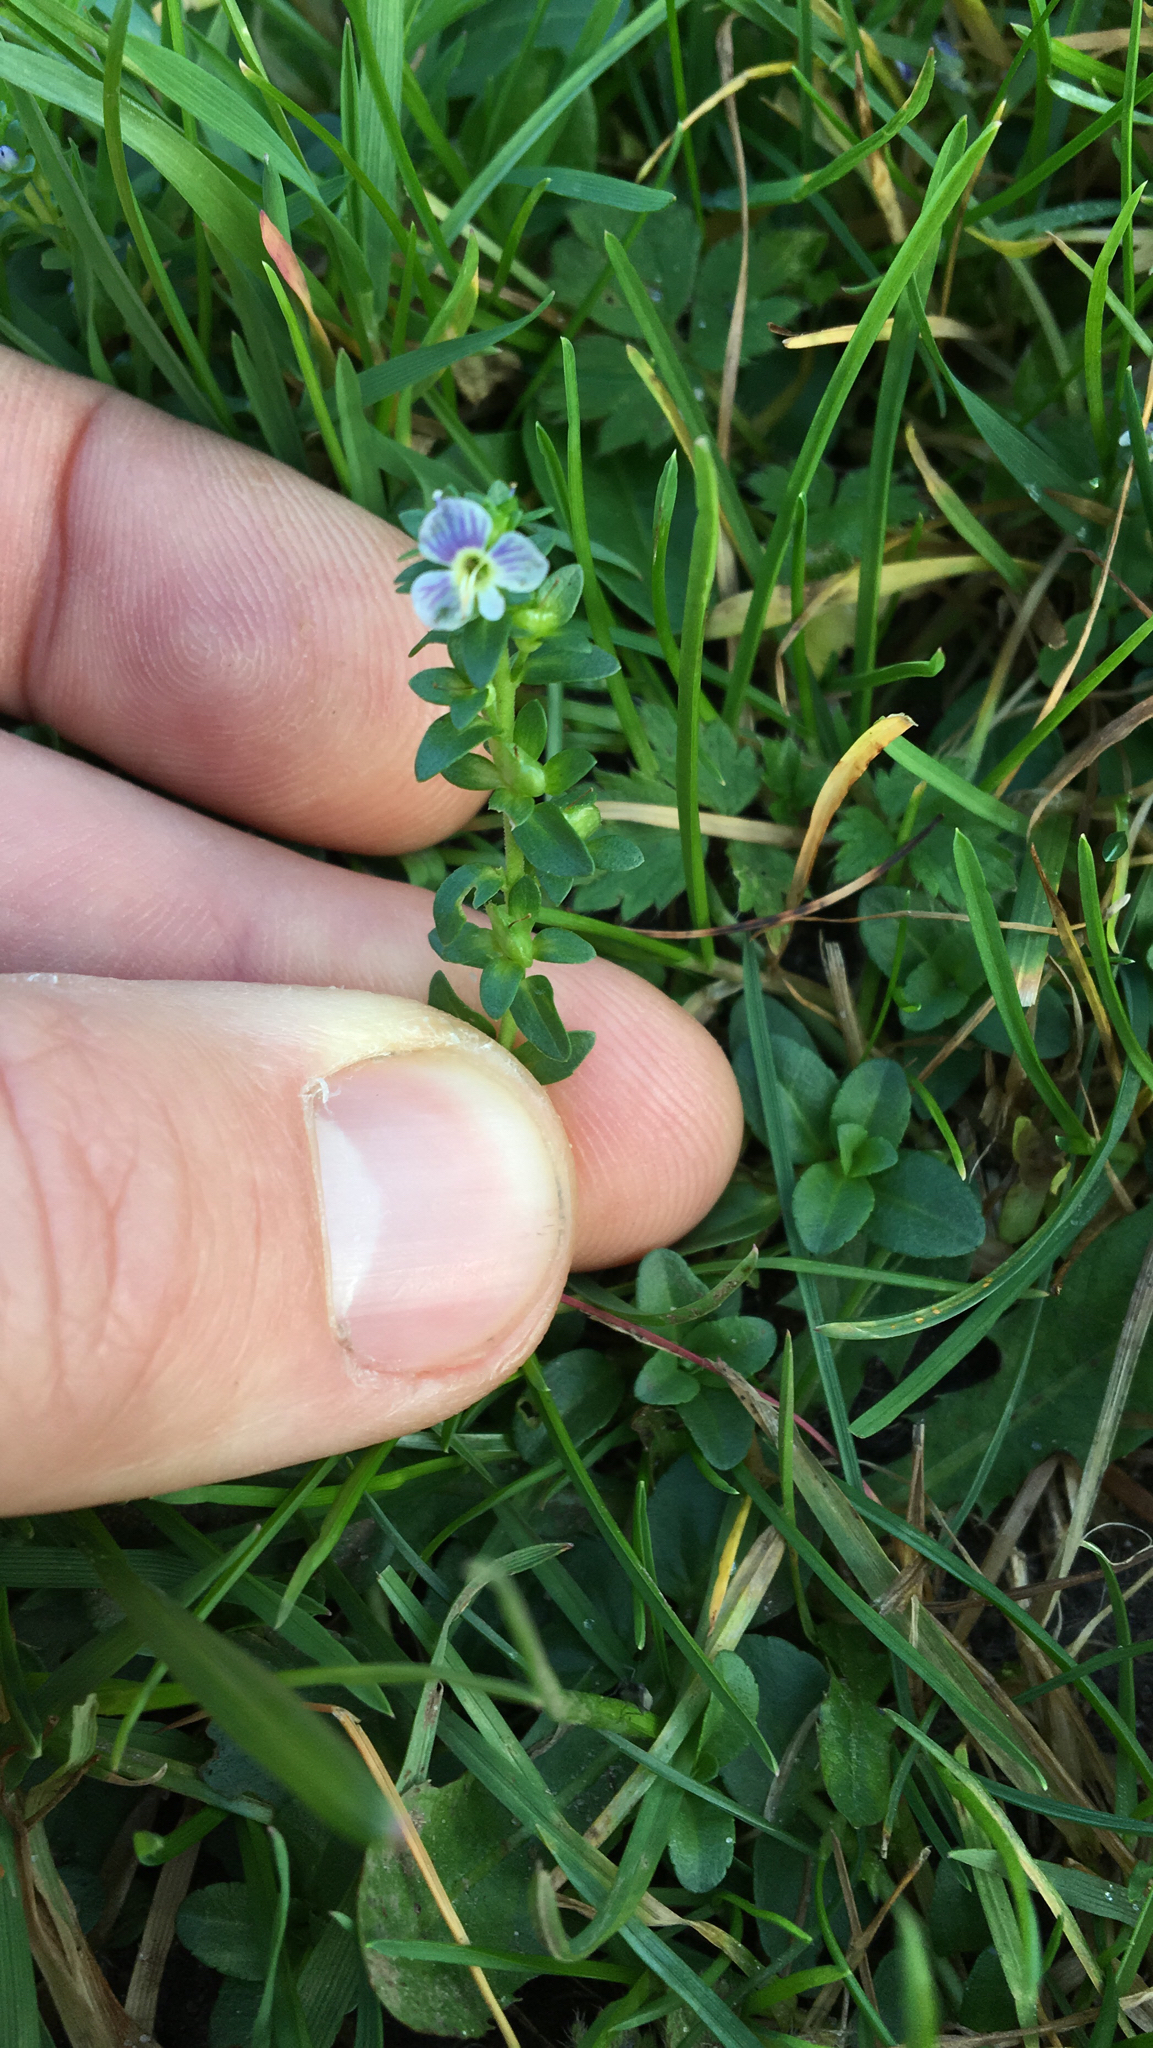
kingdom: Plantae
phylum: Tracheophyta
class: Magnoliopsida
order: Lamiales
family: Plantaginaceae
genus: Veronica
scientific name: Veronica serpyllifolia
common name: Thyme-leaved speedwell
